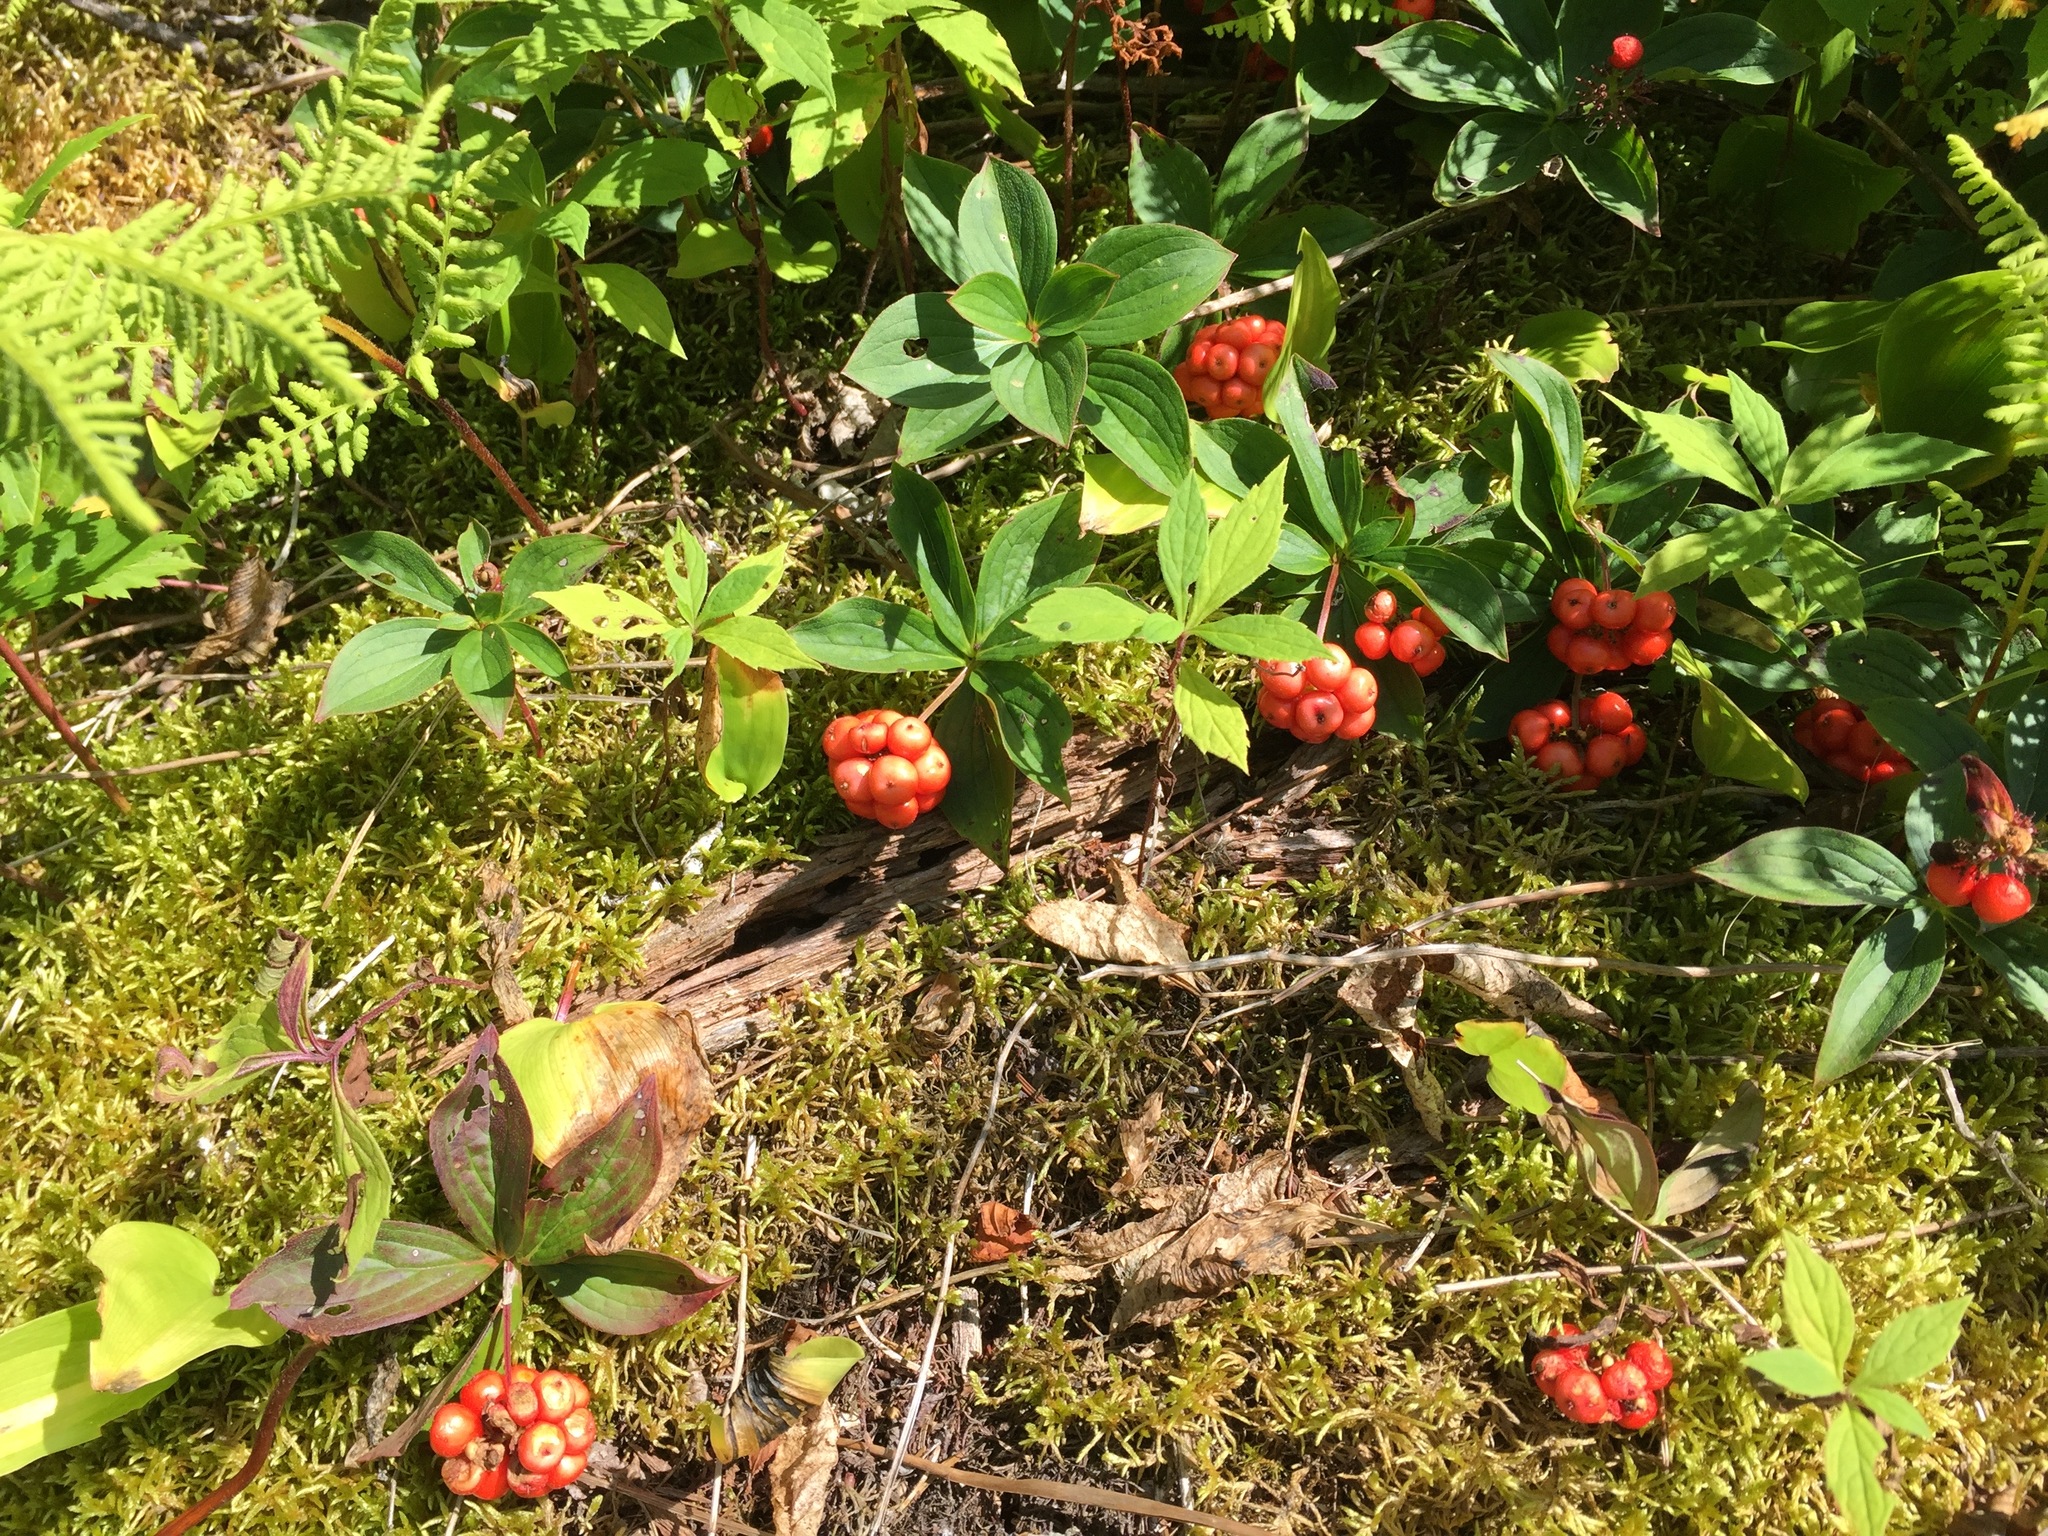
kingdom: Plantae
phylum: Tracheophyta
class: Magnoliopsida
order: Cornales
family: Cornaceae
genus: Cornus
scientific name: Cornus canadensis
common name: Creeping dogwood
